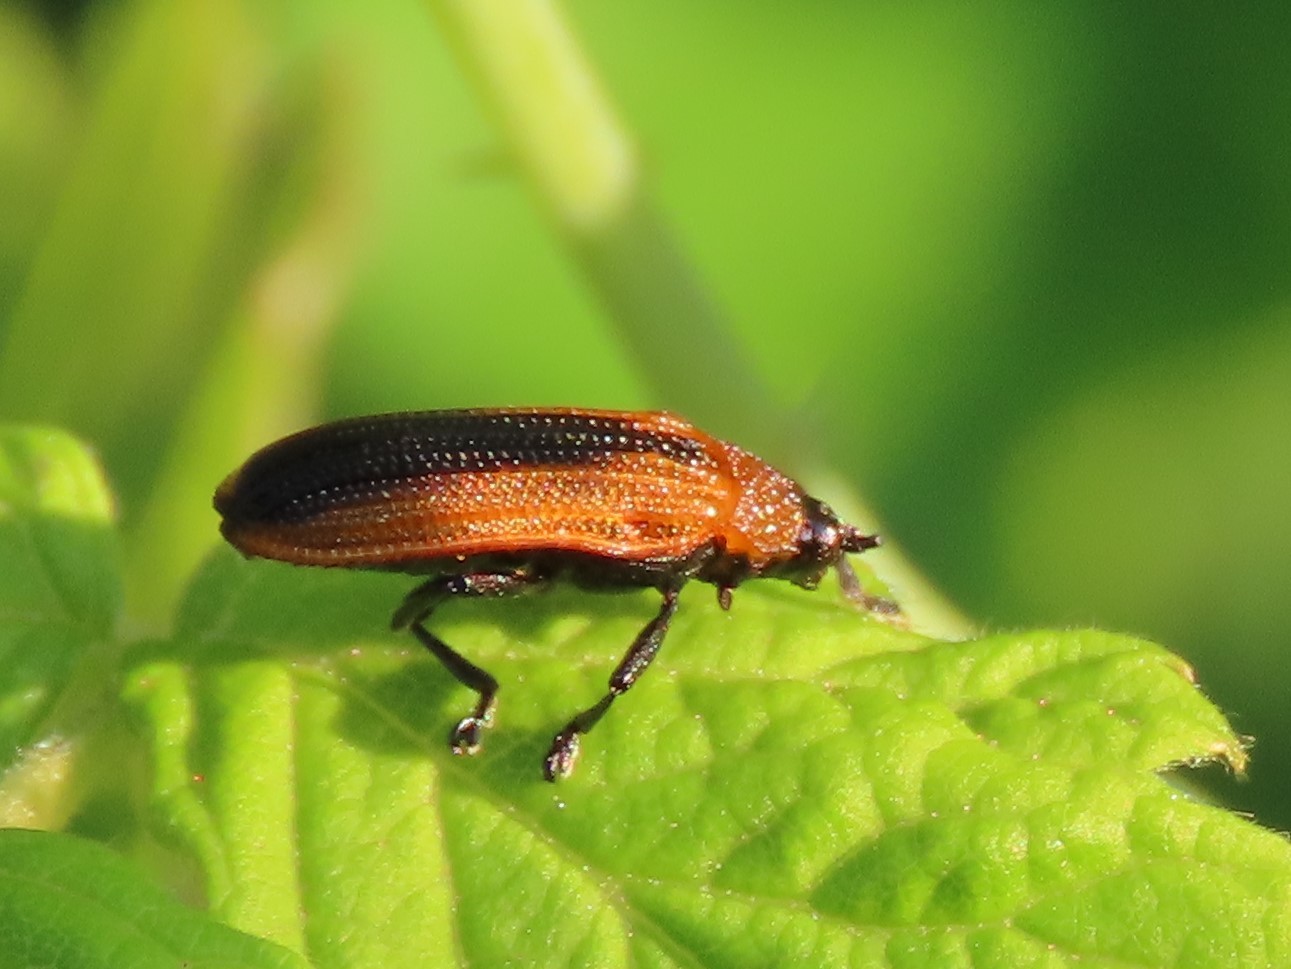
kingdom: Animalia
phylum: Arthropoda
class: Insecta
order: Coleoptera
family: Chrysomelidae
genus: Odontota
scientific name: Odontota dorsalis
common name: Locust leaf-miner beetle
